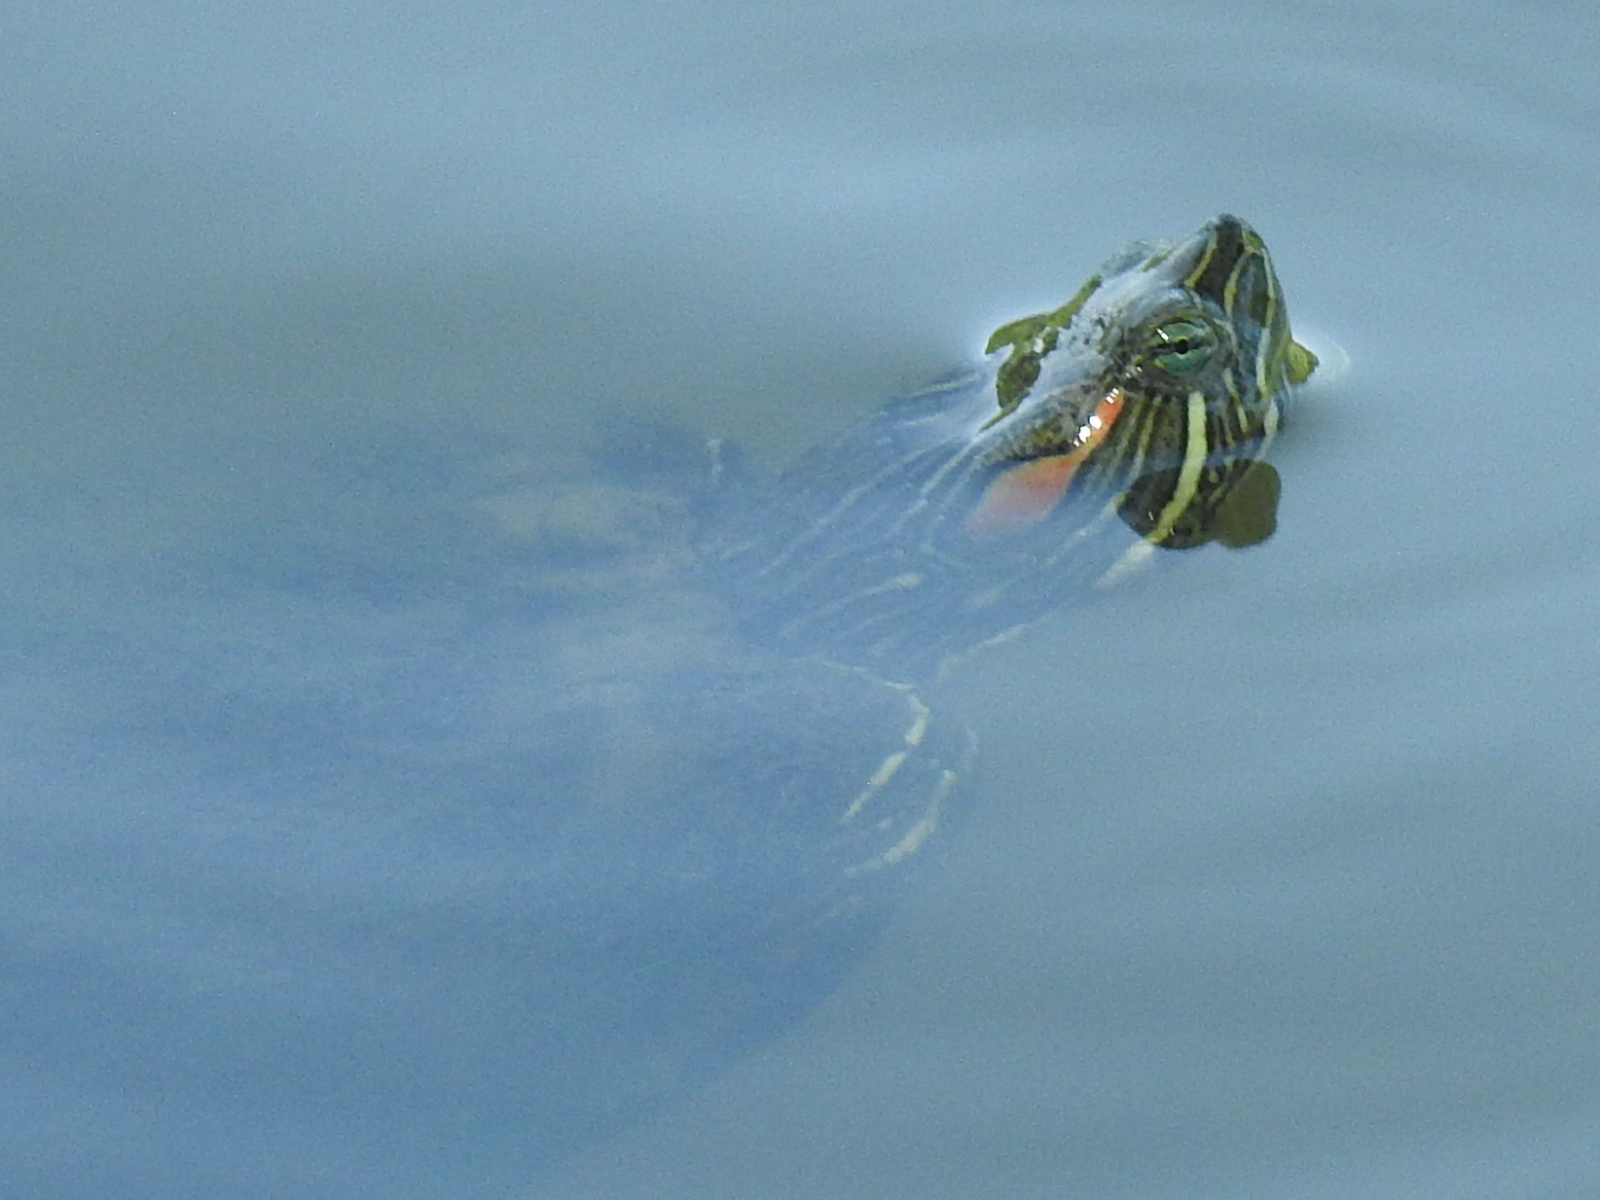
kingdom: Animalia
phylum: Chordata
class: Testudines
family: Emydidae
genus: Trachemys
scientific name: Trachemys scripta
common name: Slider
